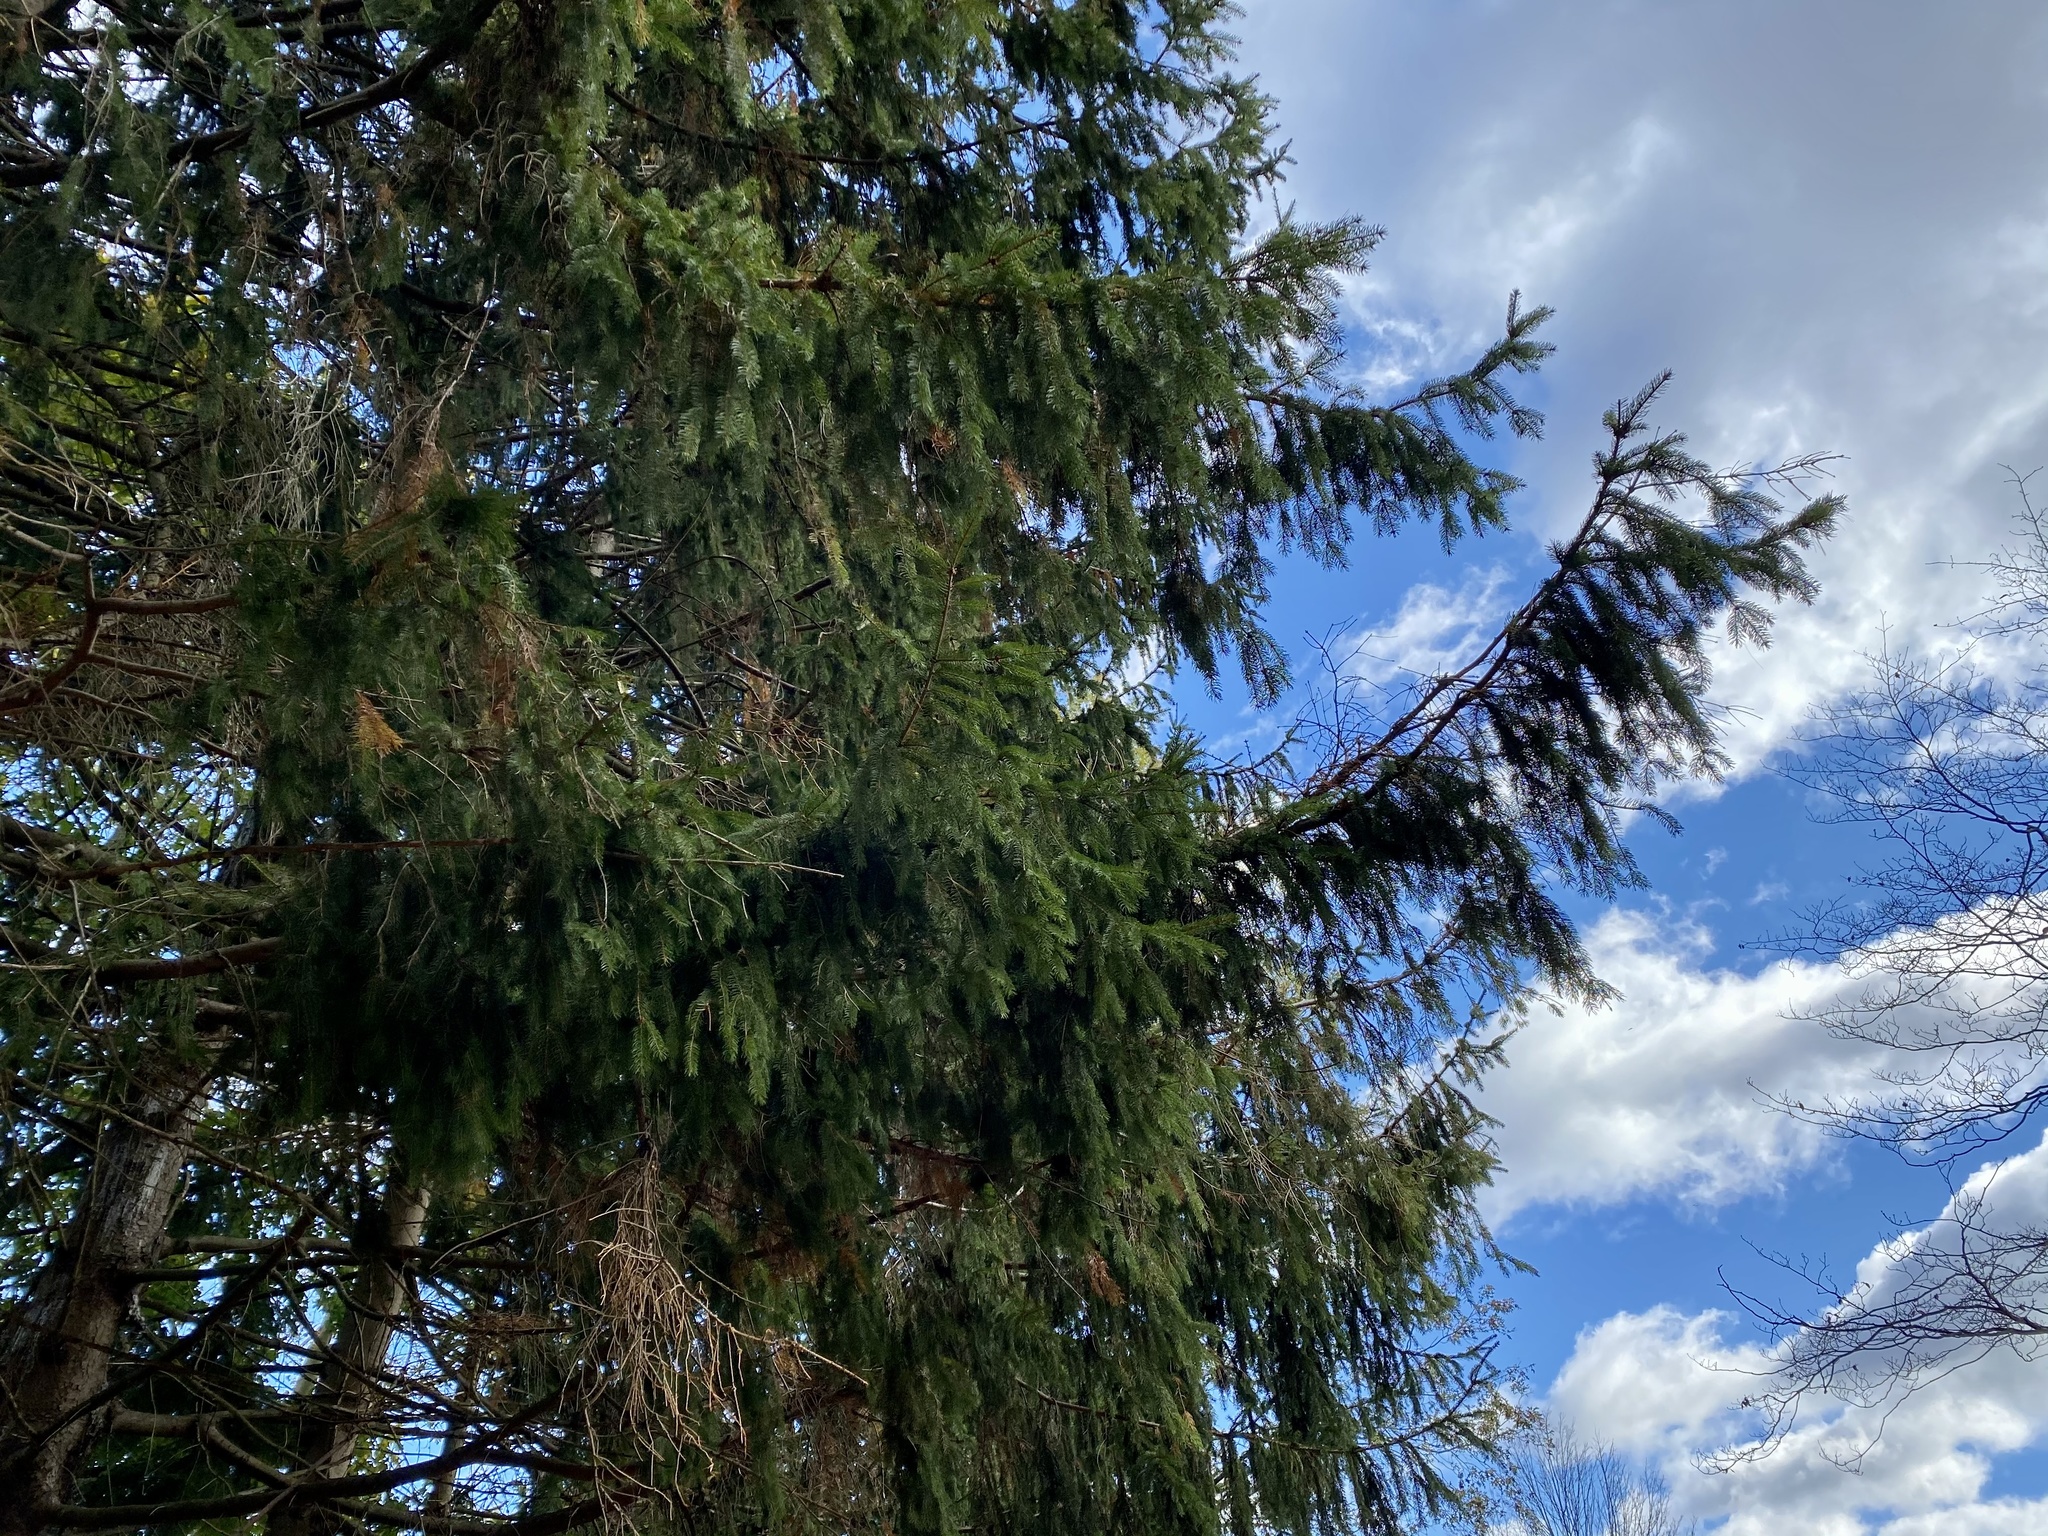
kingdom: Plantae
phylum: Tracheophyta
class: Pinopsida
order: Pinales
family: Pinaceae
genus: Picea
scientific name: Picea abies
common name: Norway spruce
